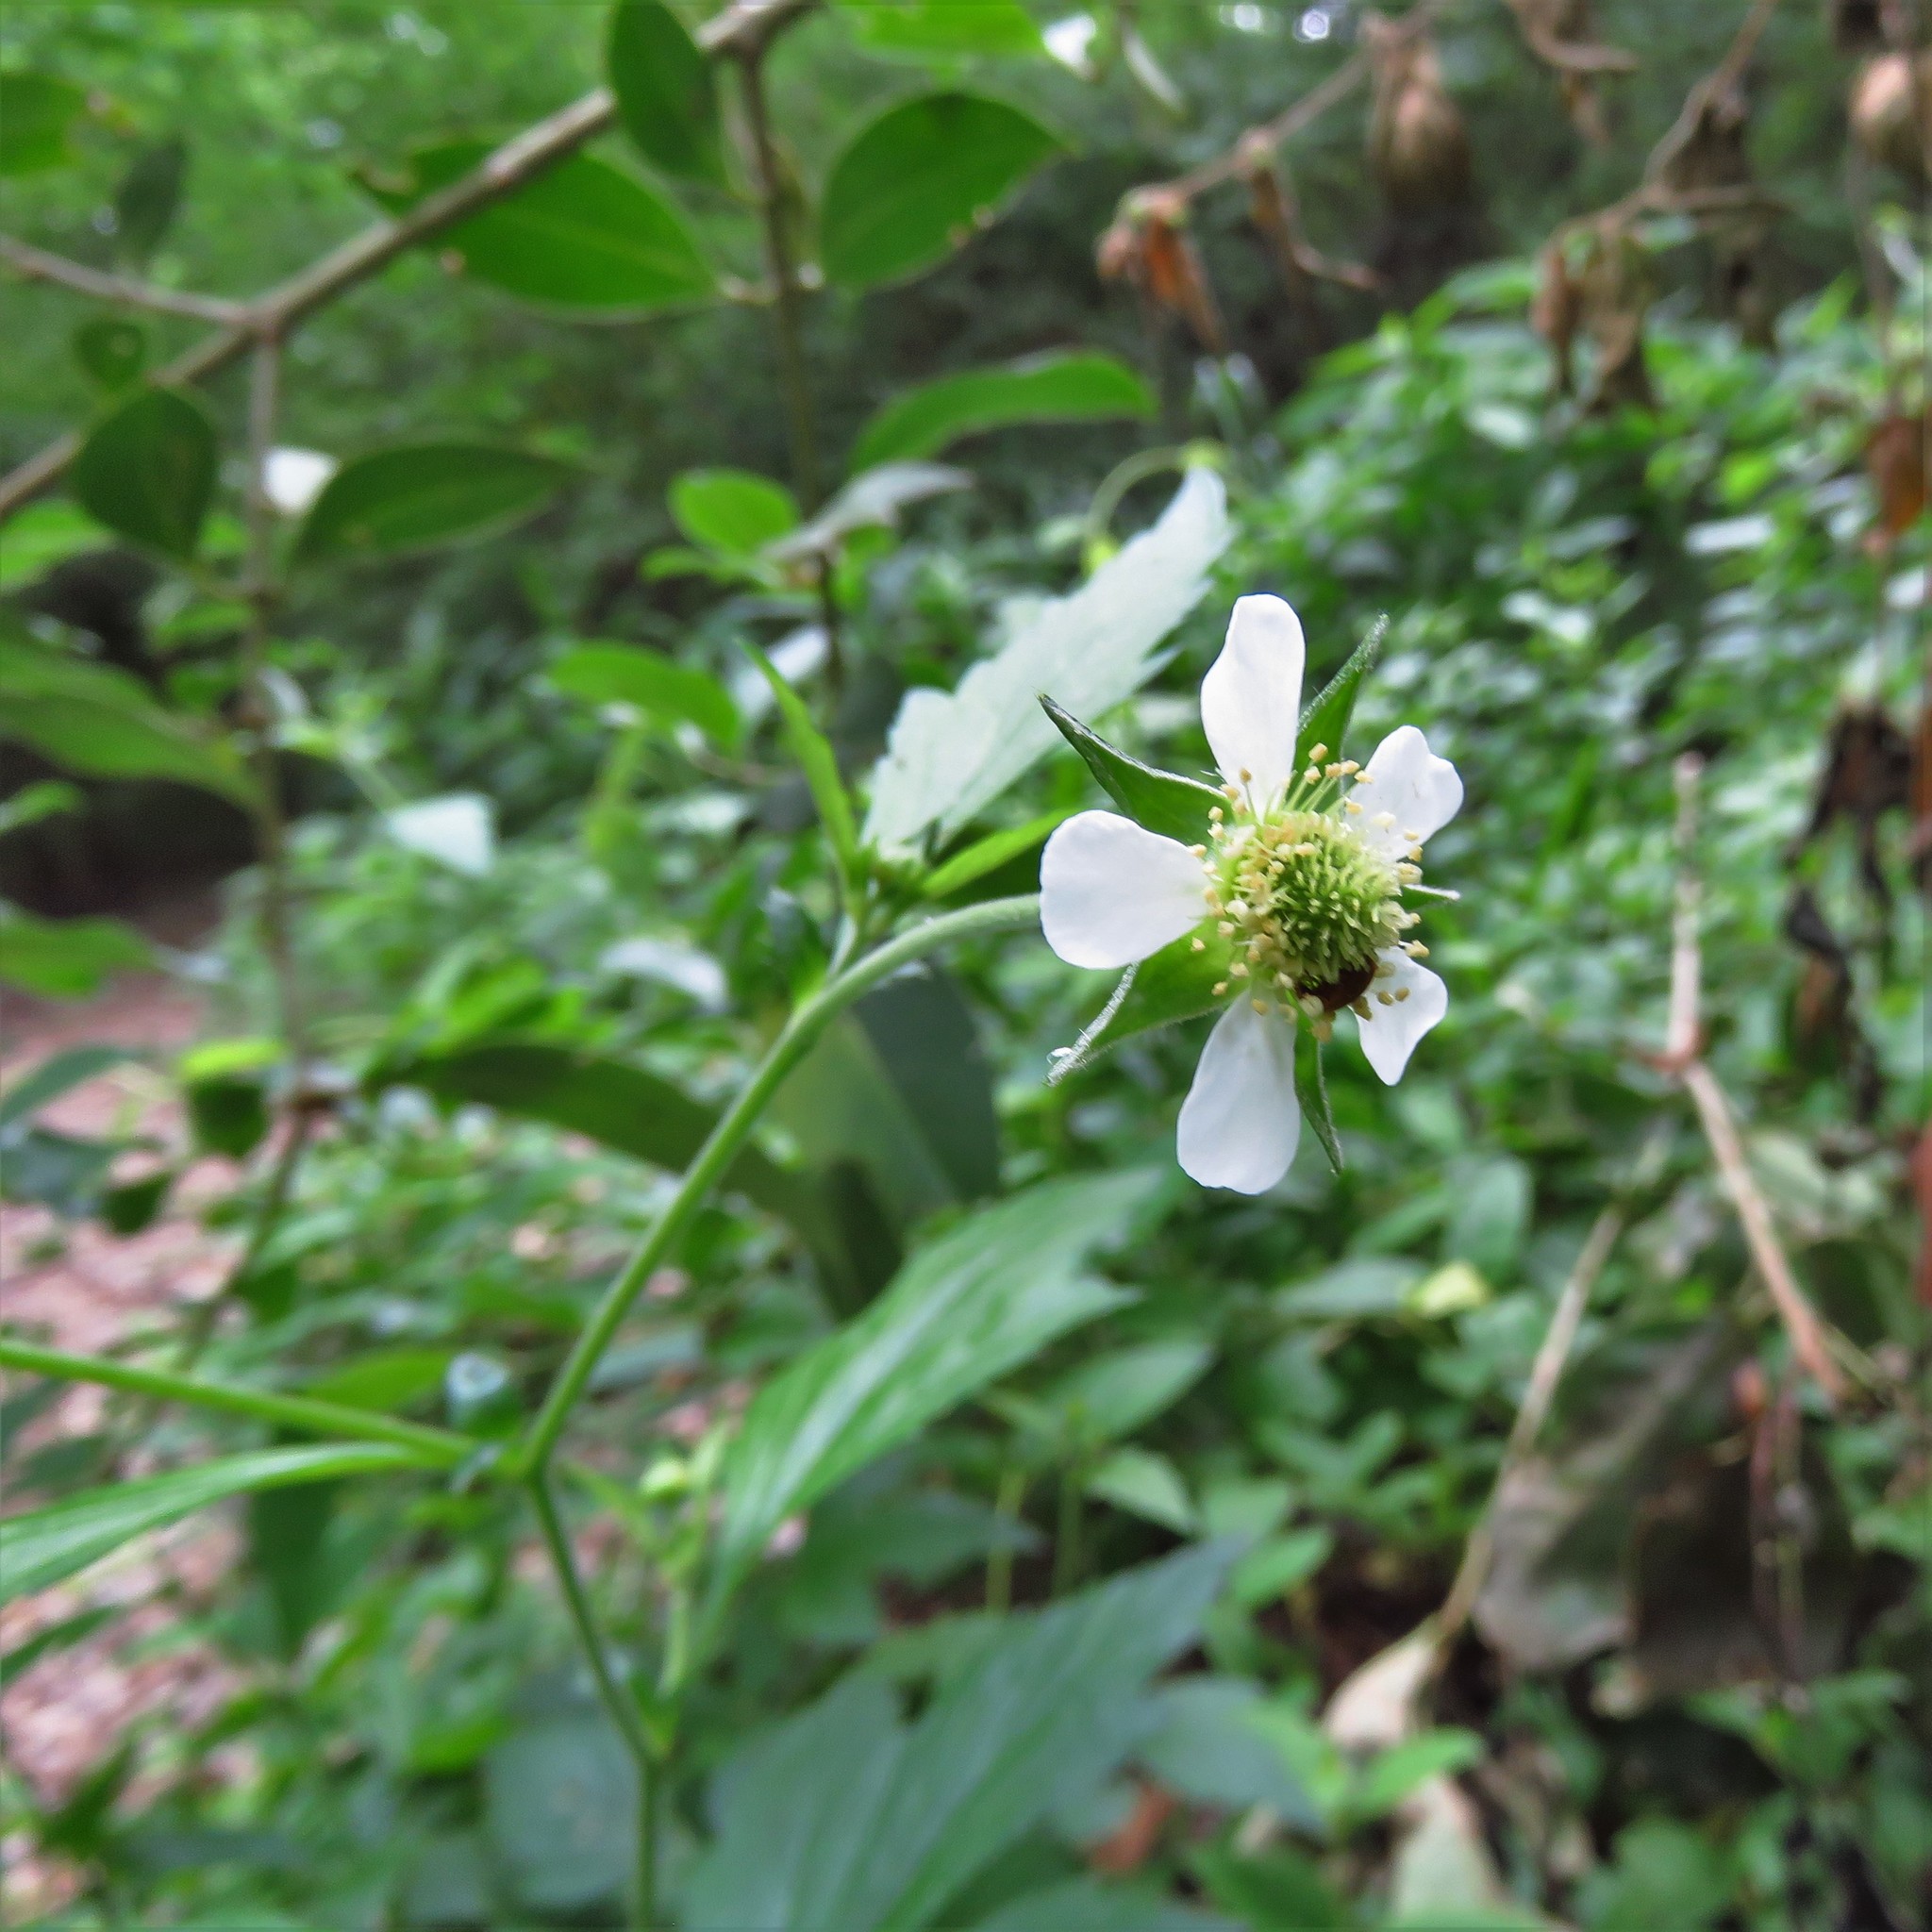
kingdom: Plantae
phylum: Tracheophyta
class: Magnoliopsida
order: Rosales
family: Rosaceae
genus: Geum
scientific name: Geum canadense
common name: White avens
